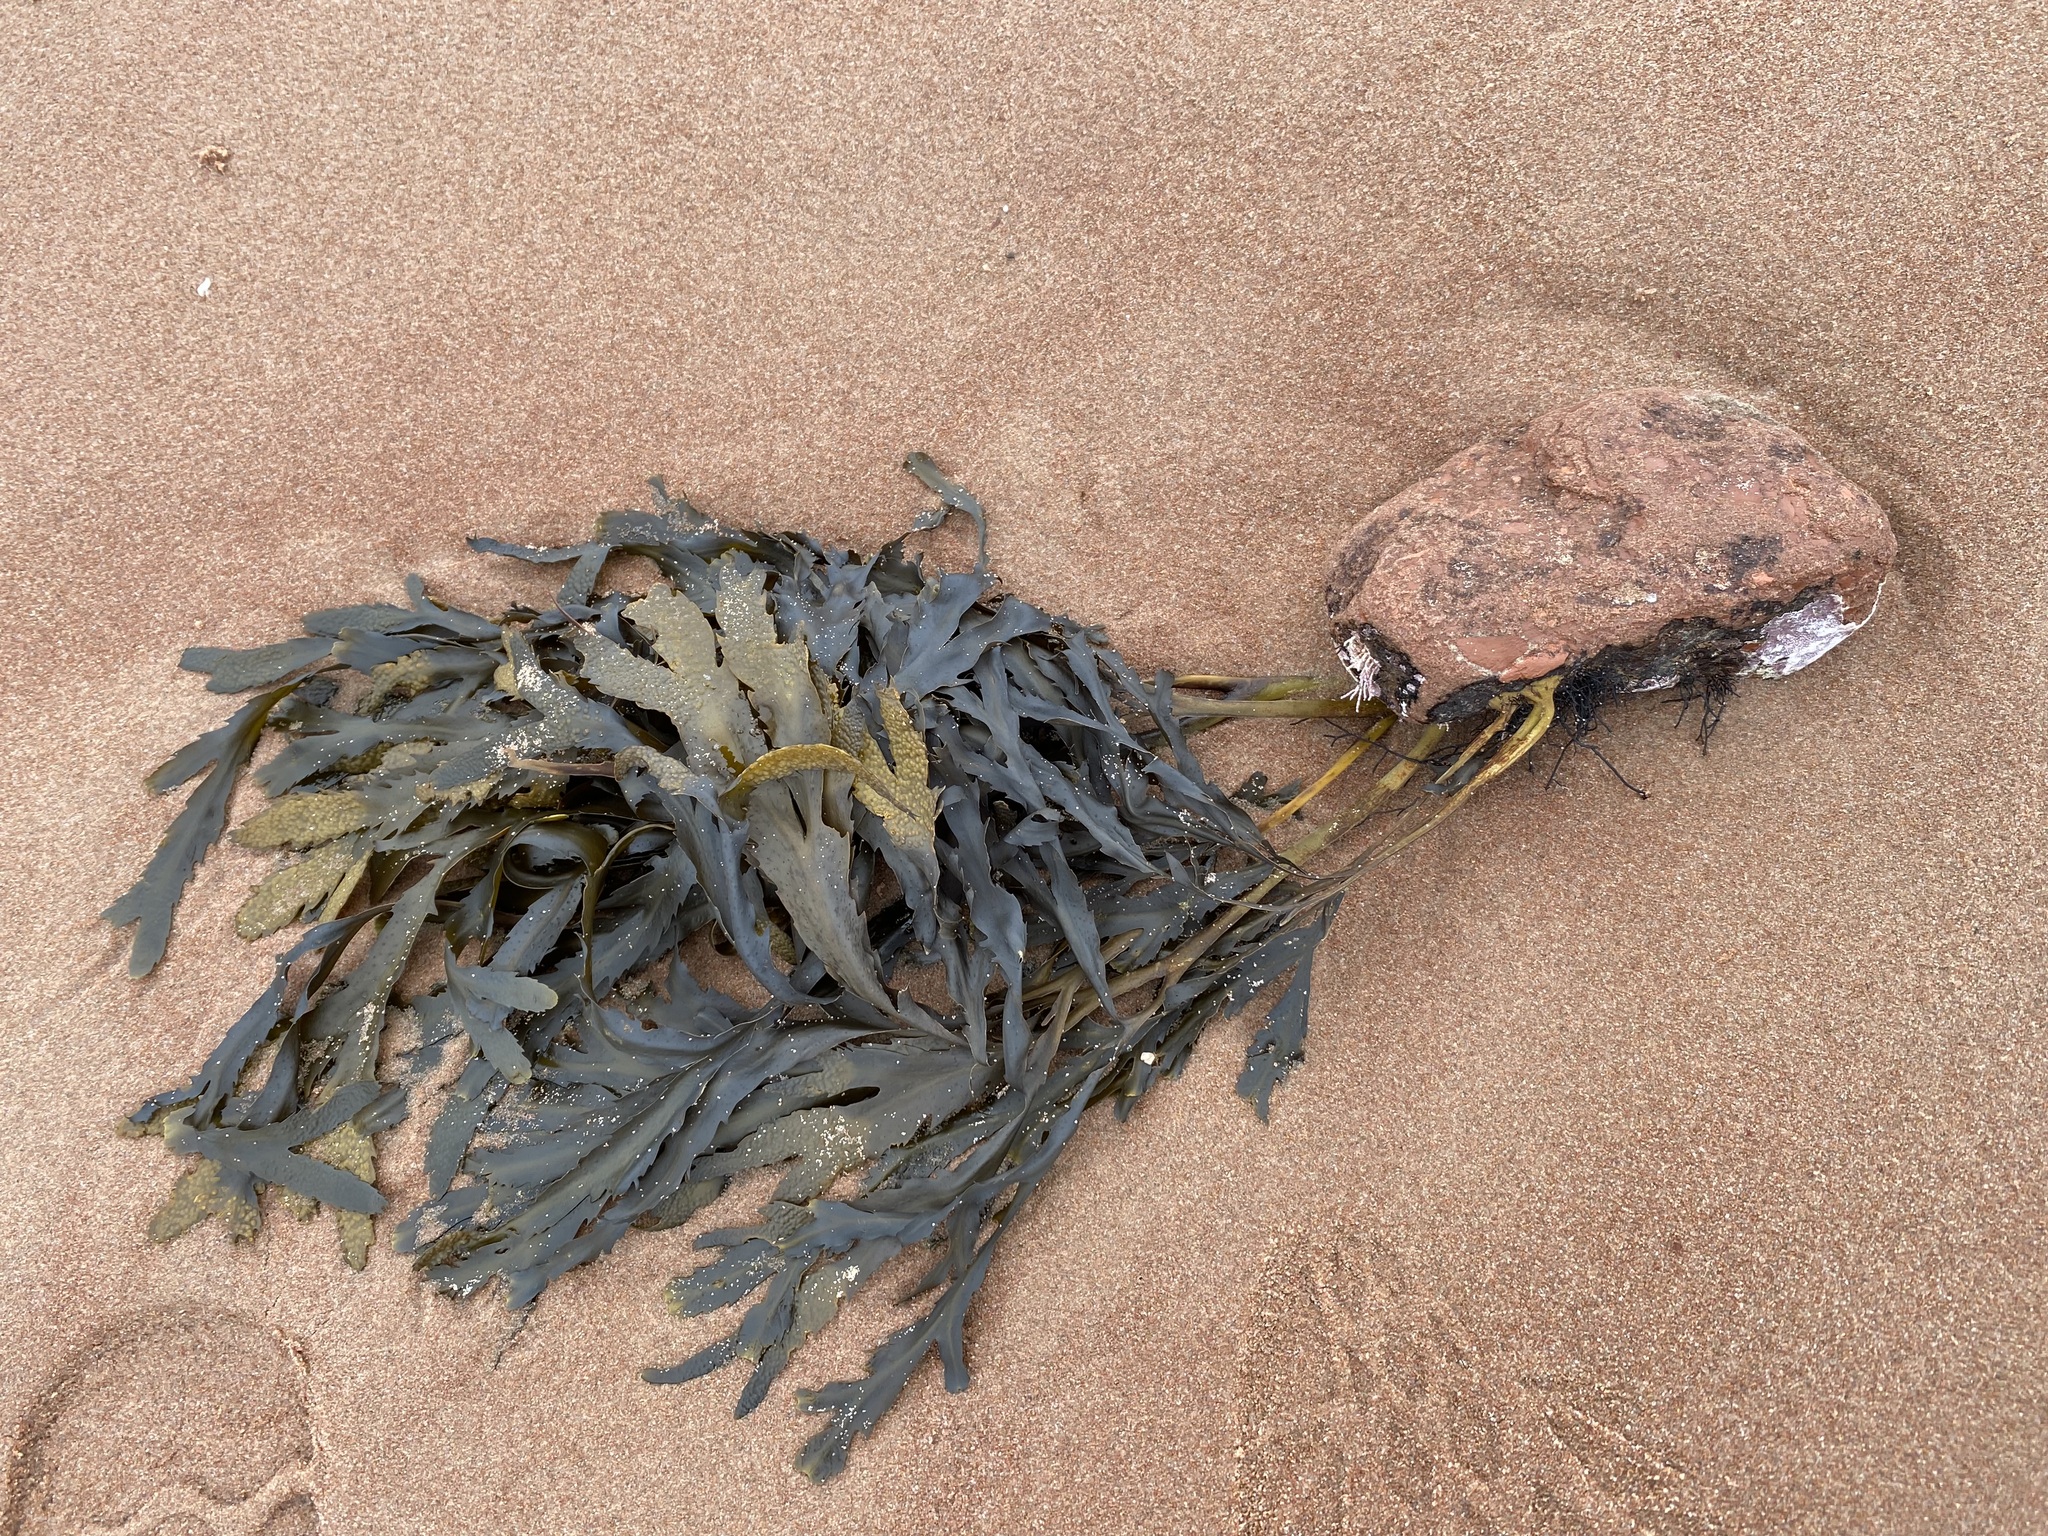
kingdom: Chromista
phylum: Ochrophyta
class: Phaeophyceae
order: Fucales
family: Fucaceae
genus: Fucus
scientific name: Fucus serratus
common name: Toothed wrack
